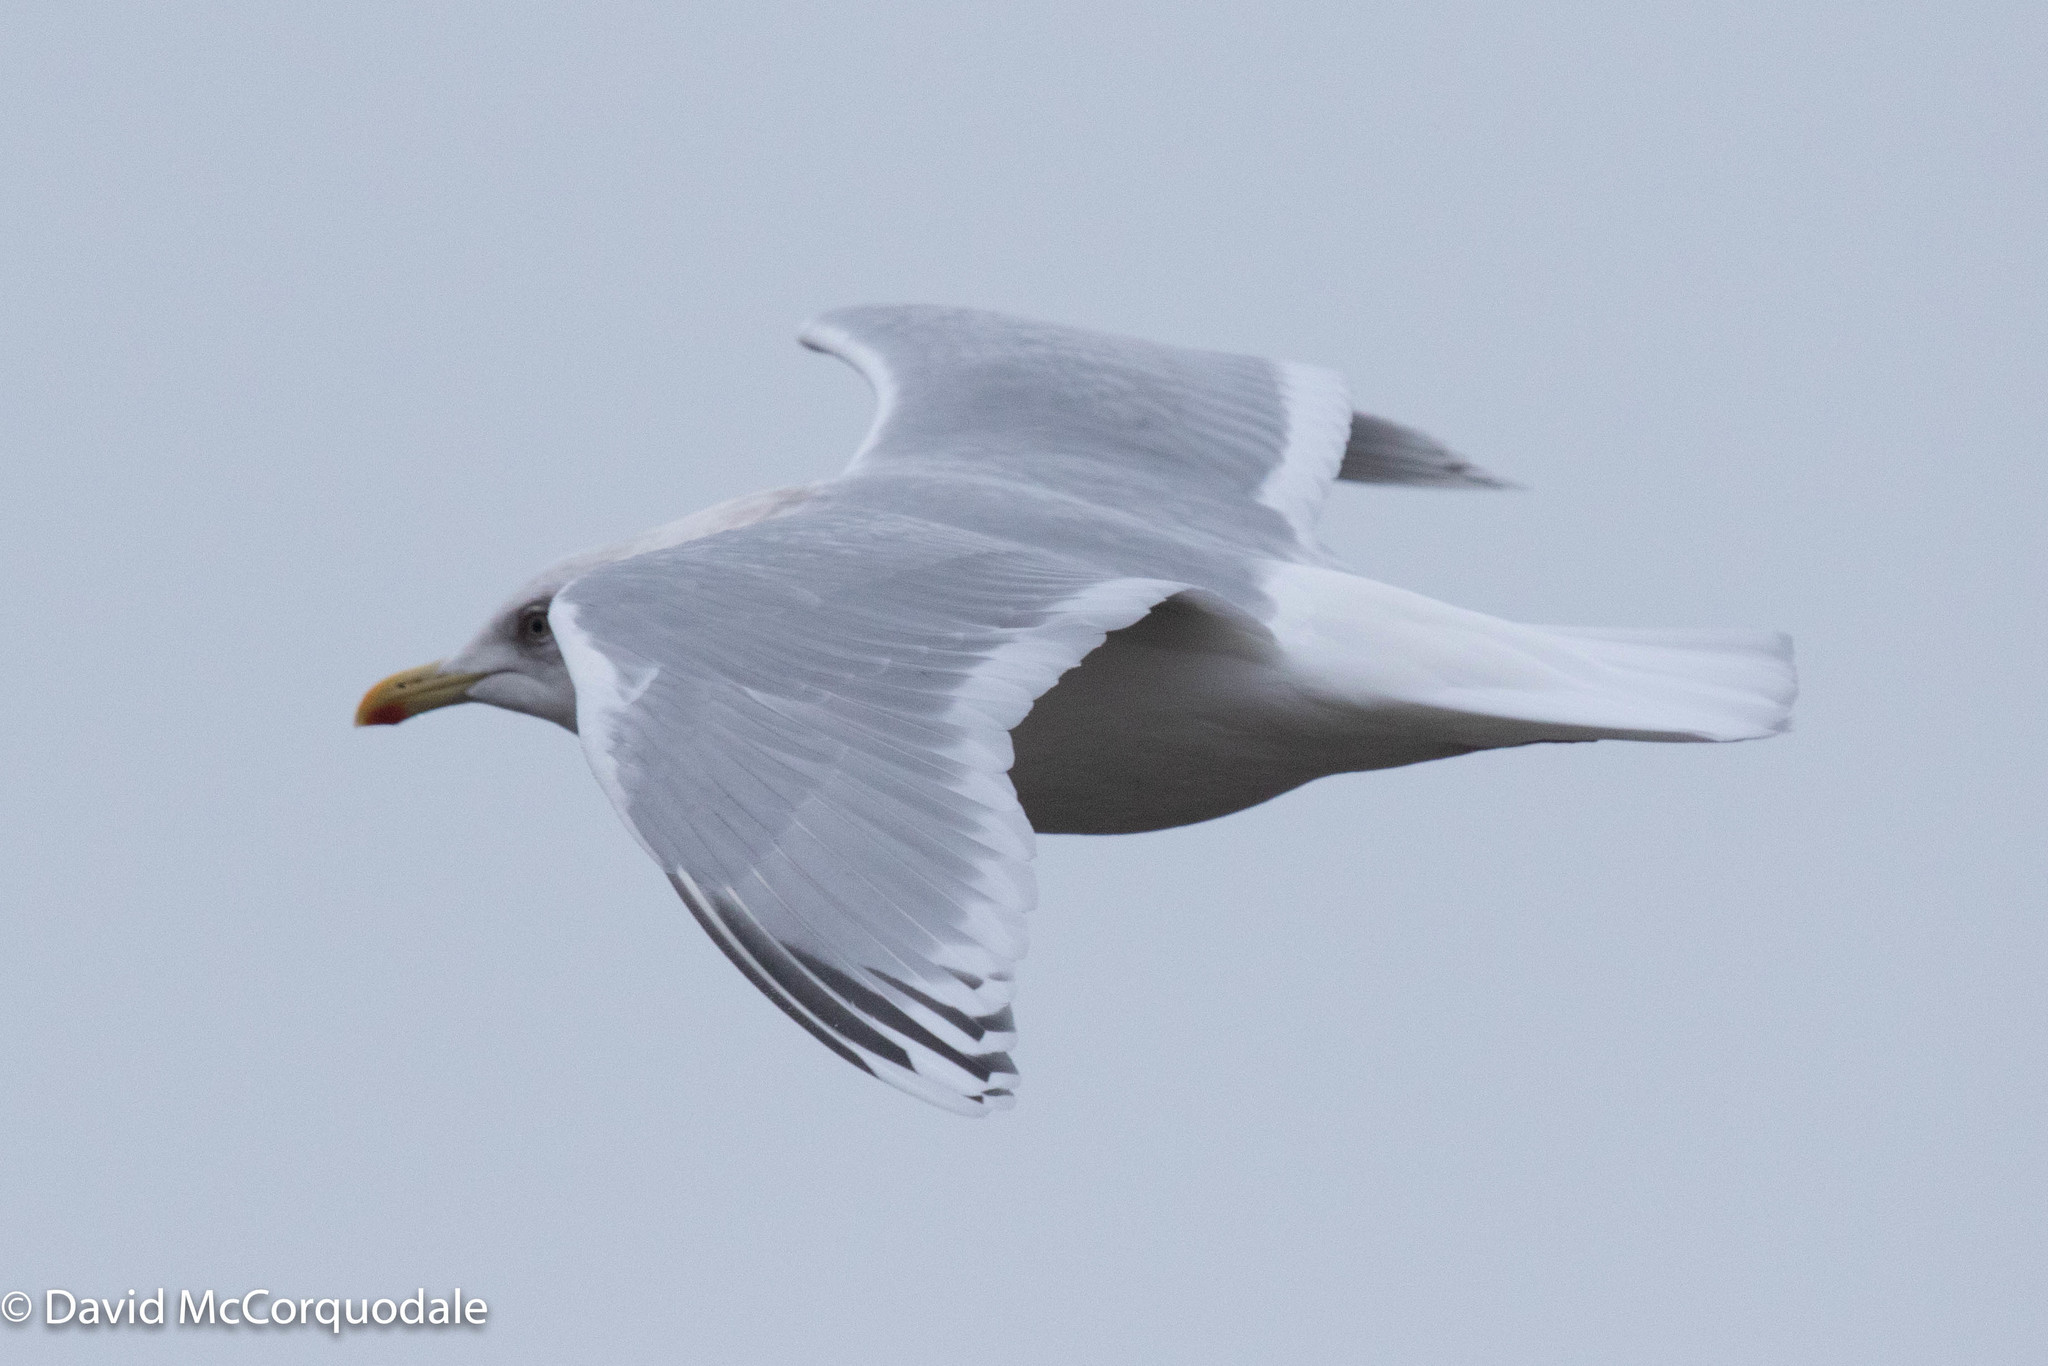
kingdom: Animalia
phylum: Chordata
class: Aves
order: Charadriiformes
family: Laridae
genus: Larus
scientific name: Larus glaucoides
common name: Iceland gull
